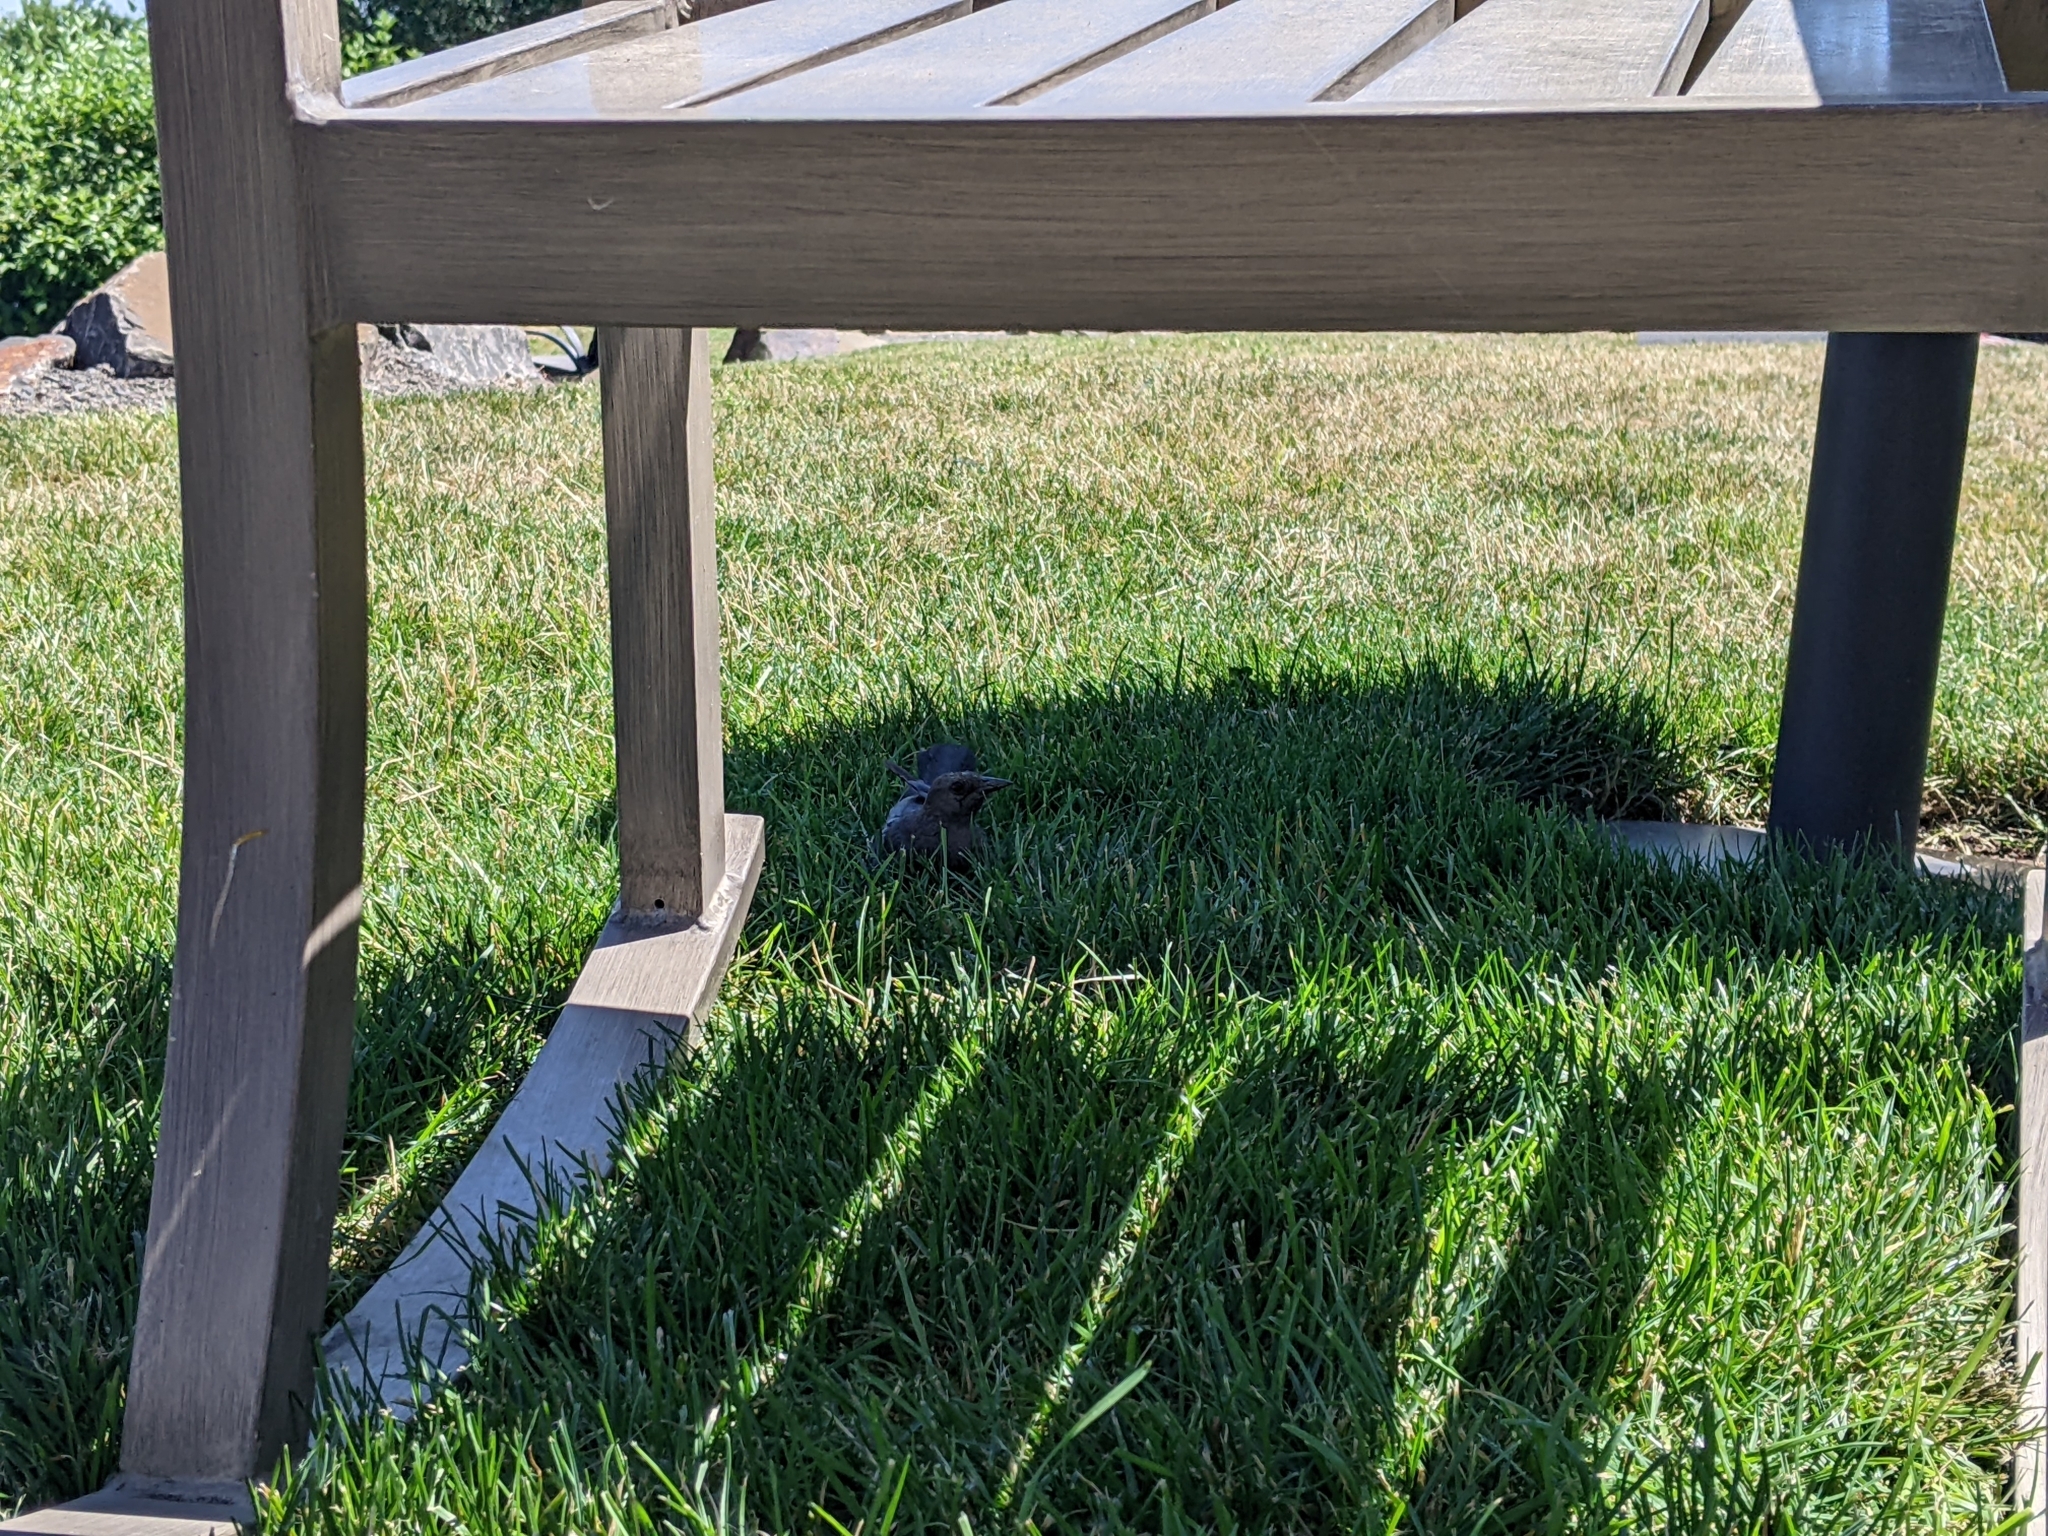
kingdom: Animalia
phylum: Chordata
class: Aves
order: Passeriformes
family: Icteridae
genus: Euphagus
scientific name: Euphagus cyanocephalus
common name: Brewer's blackbird
